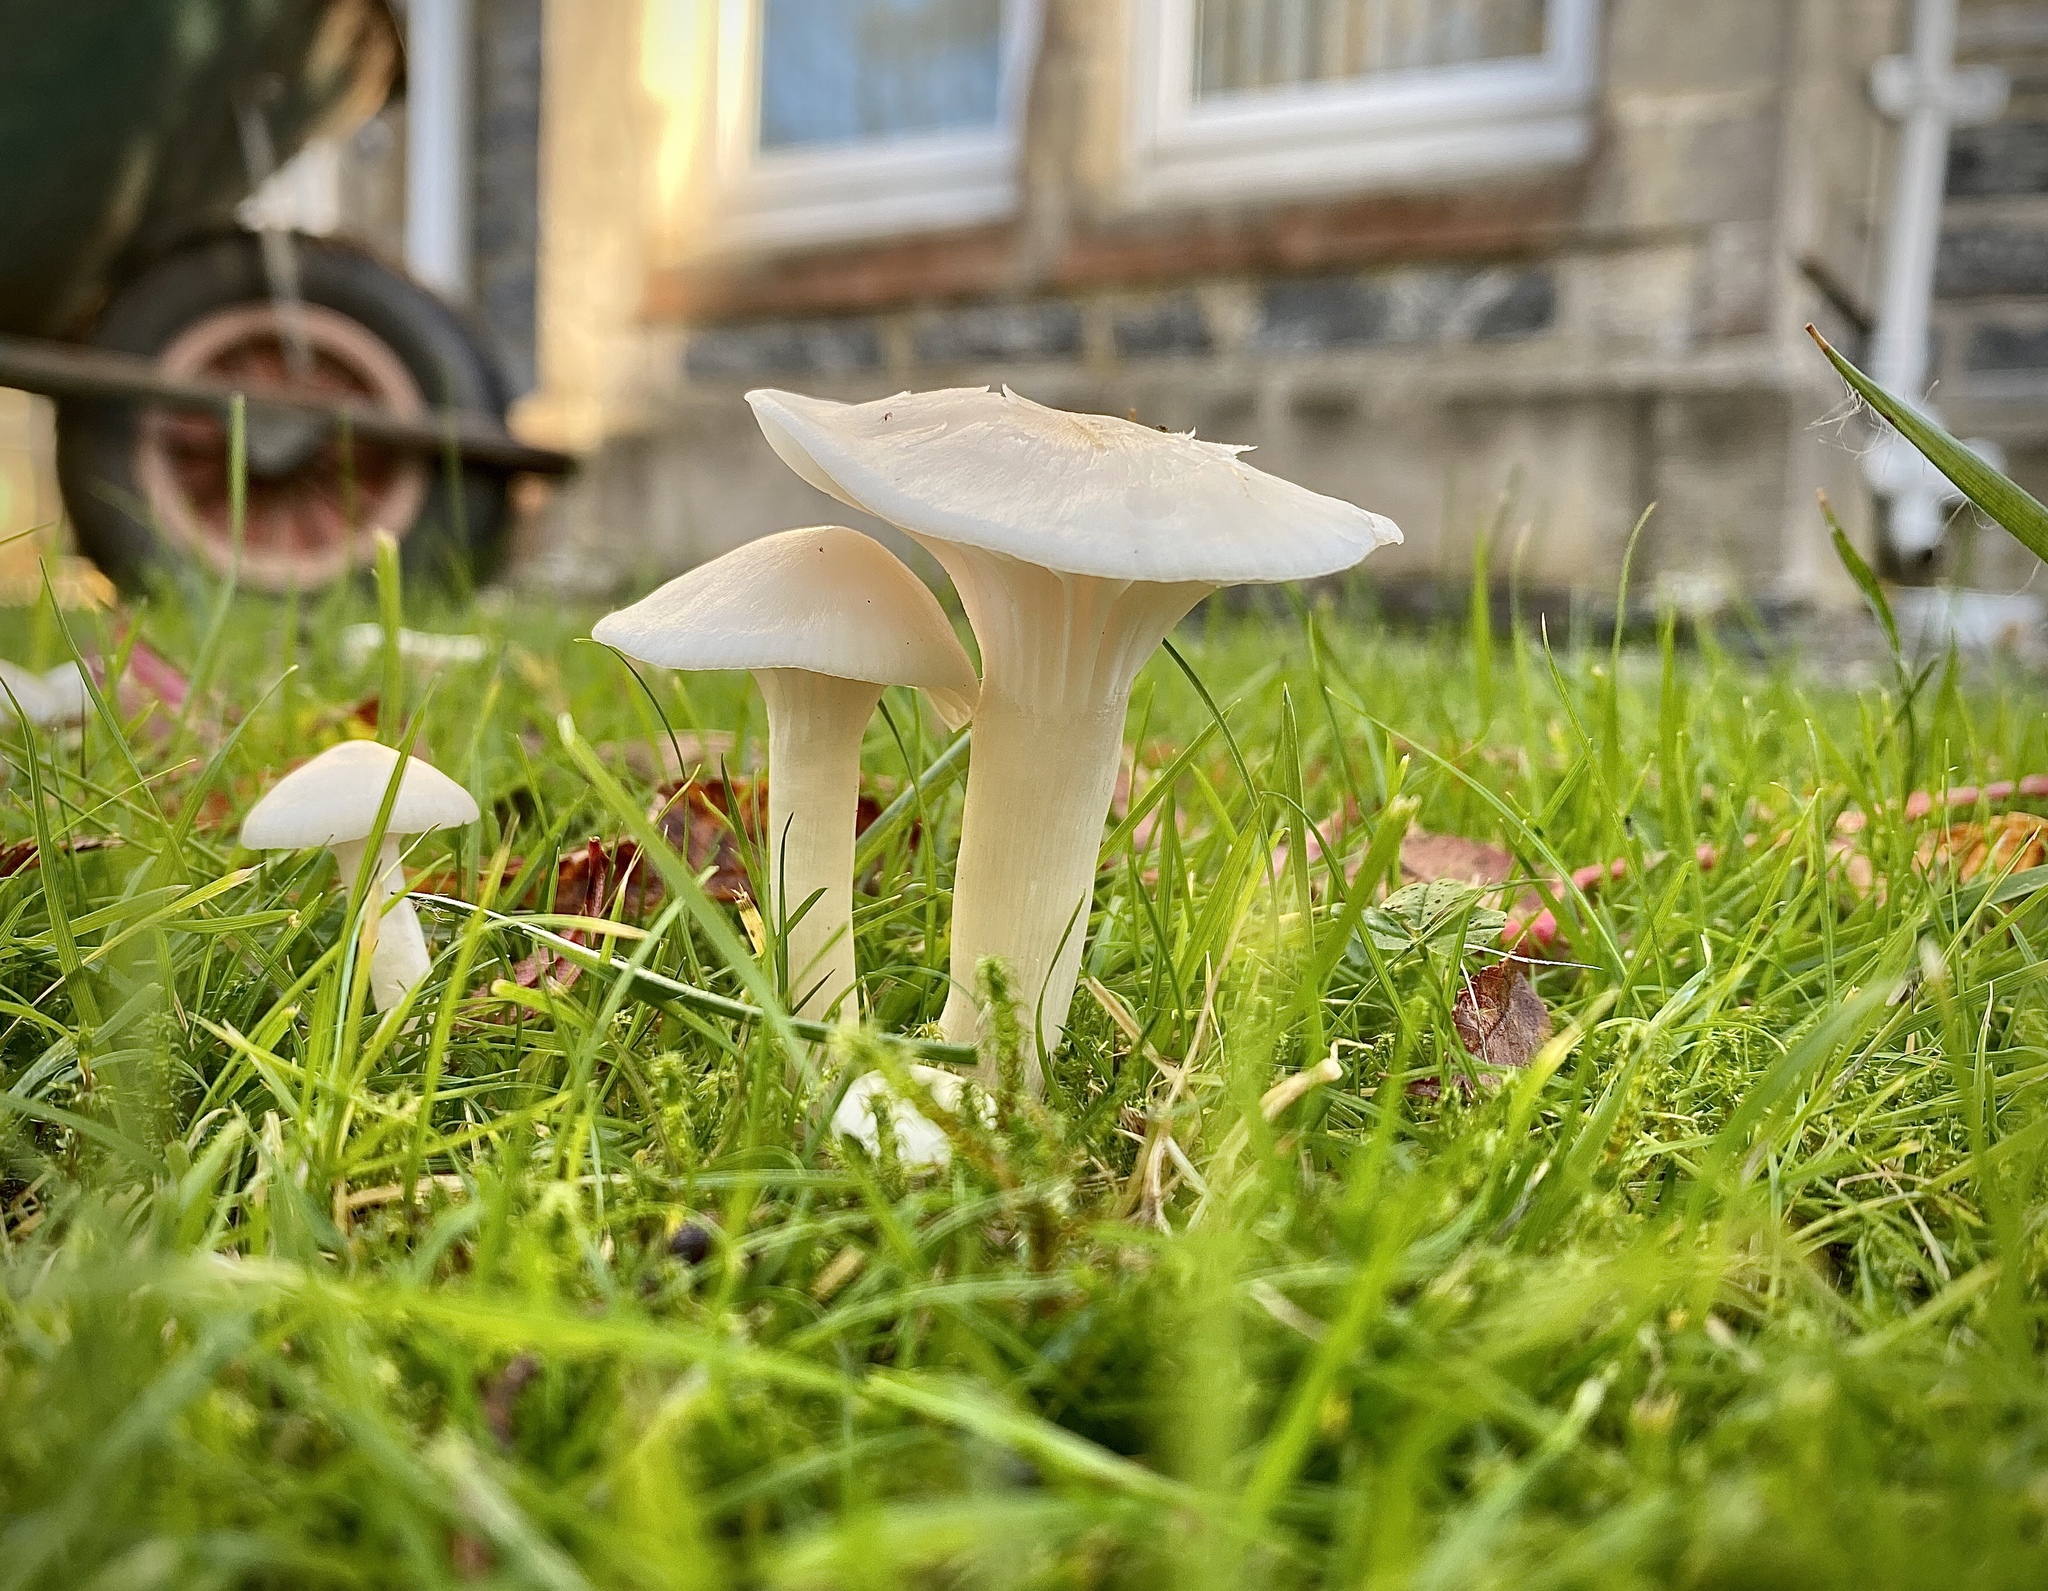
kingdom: Fungi
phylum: Basidiomycota
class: Agaricomycetes
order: Agaricales
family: Hygrophoraceae
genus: Cuphophyllus
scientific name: Cuphophyllus virgineus
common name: Snowy waxcap
